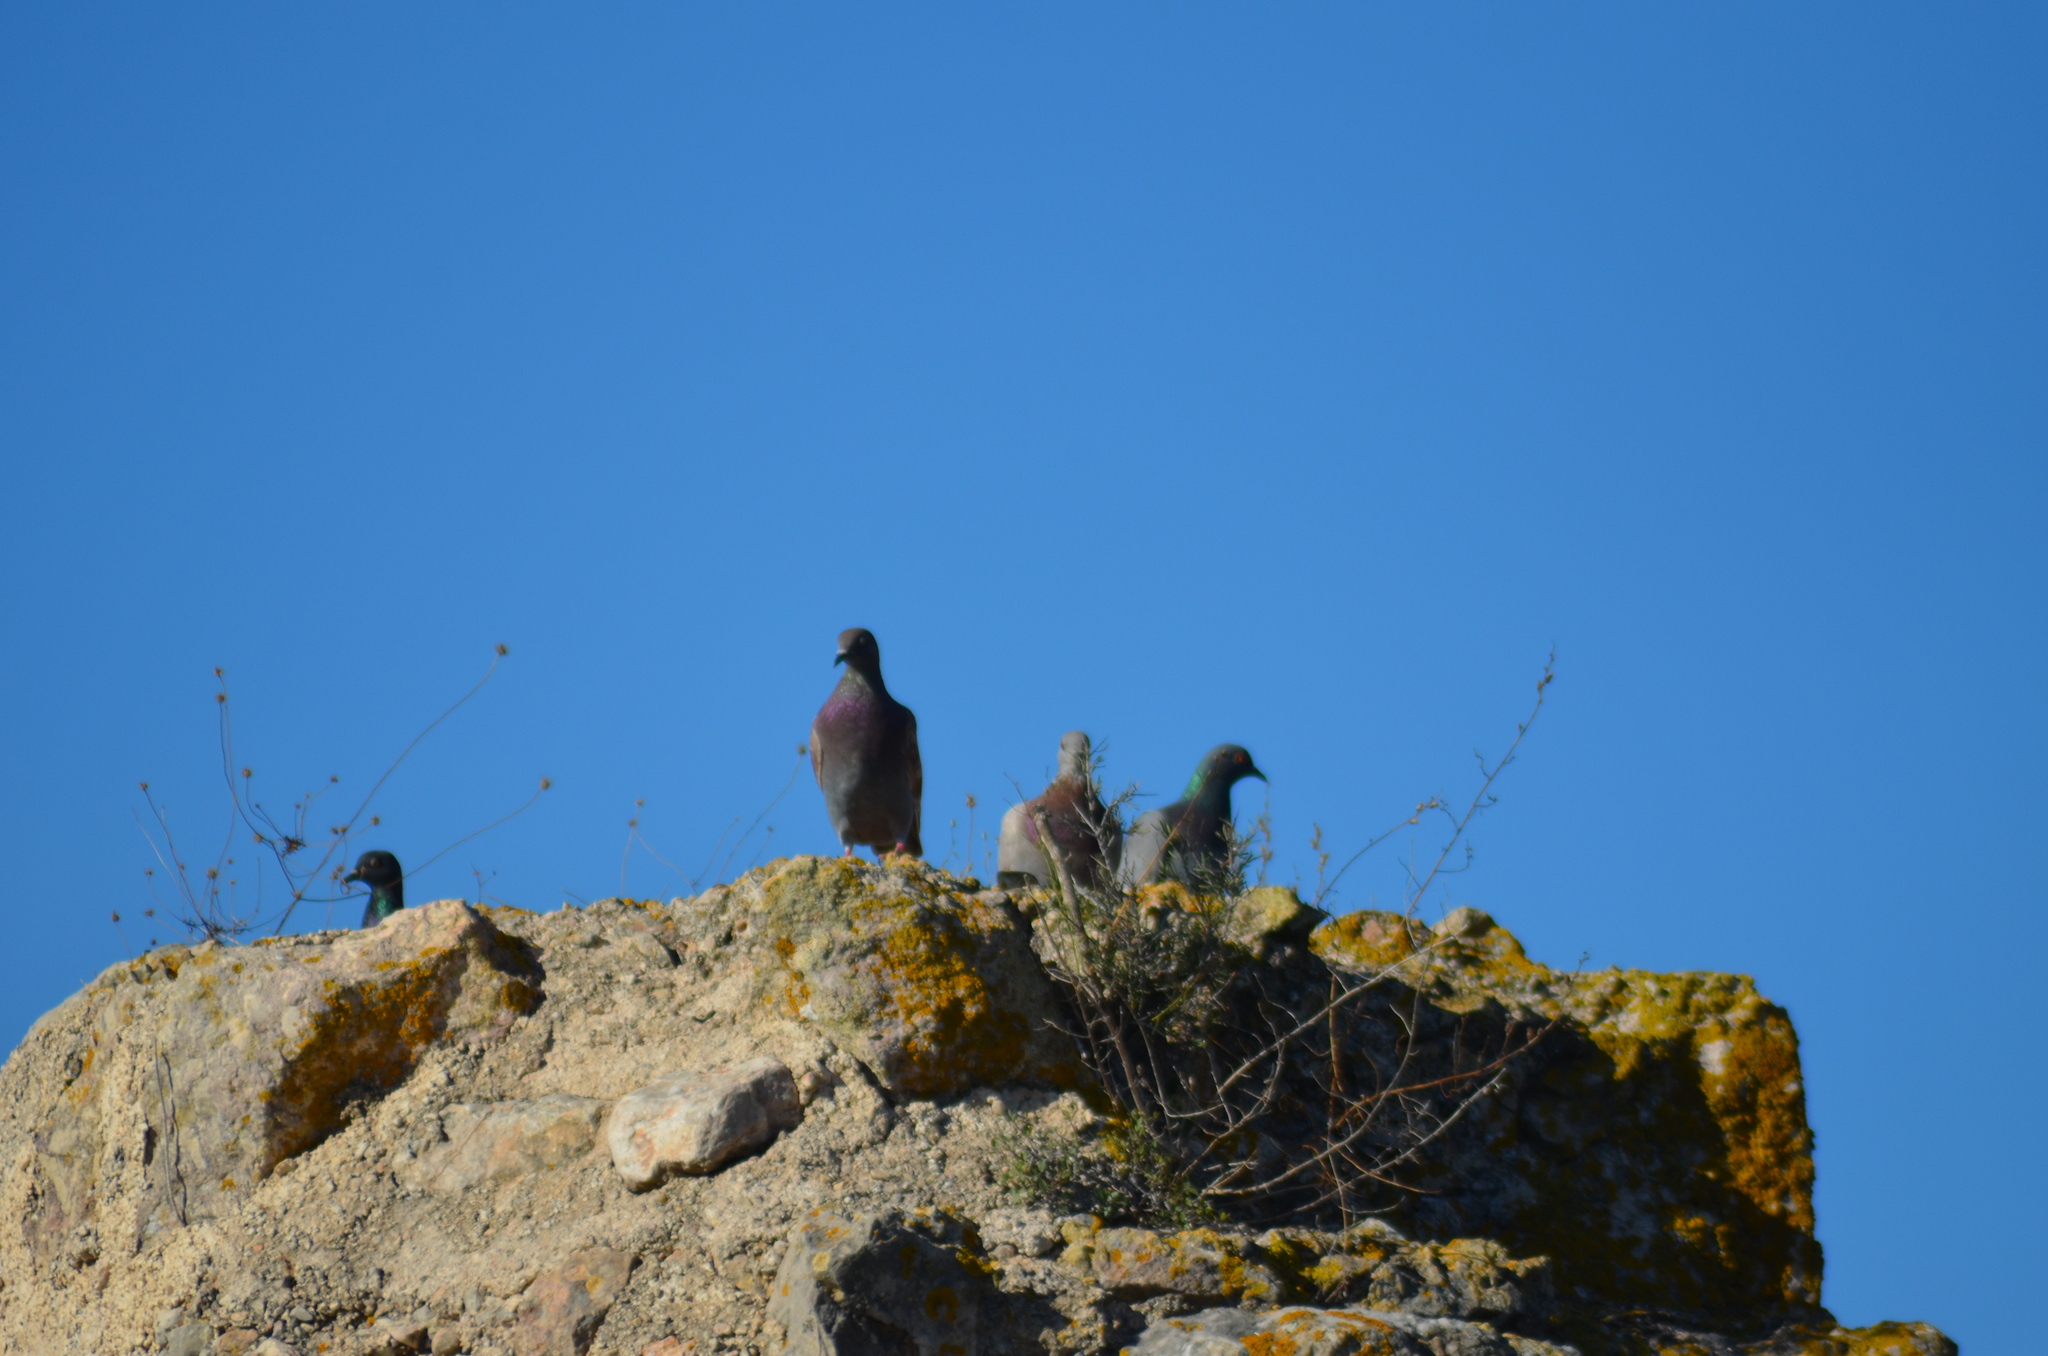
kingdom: Animalia
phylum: Chordata
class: Aves
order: Columbiformes
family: Columbidae
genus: Columba
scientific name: Columba livia
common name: Rock pigeon
